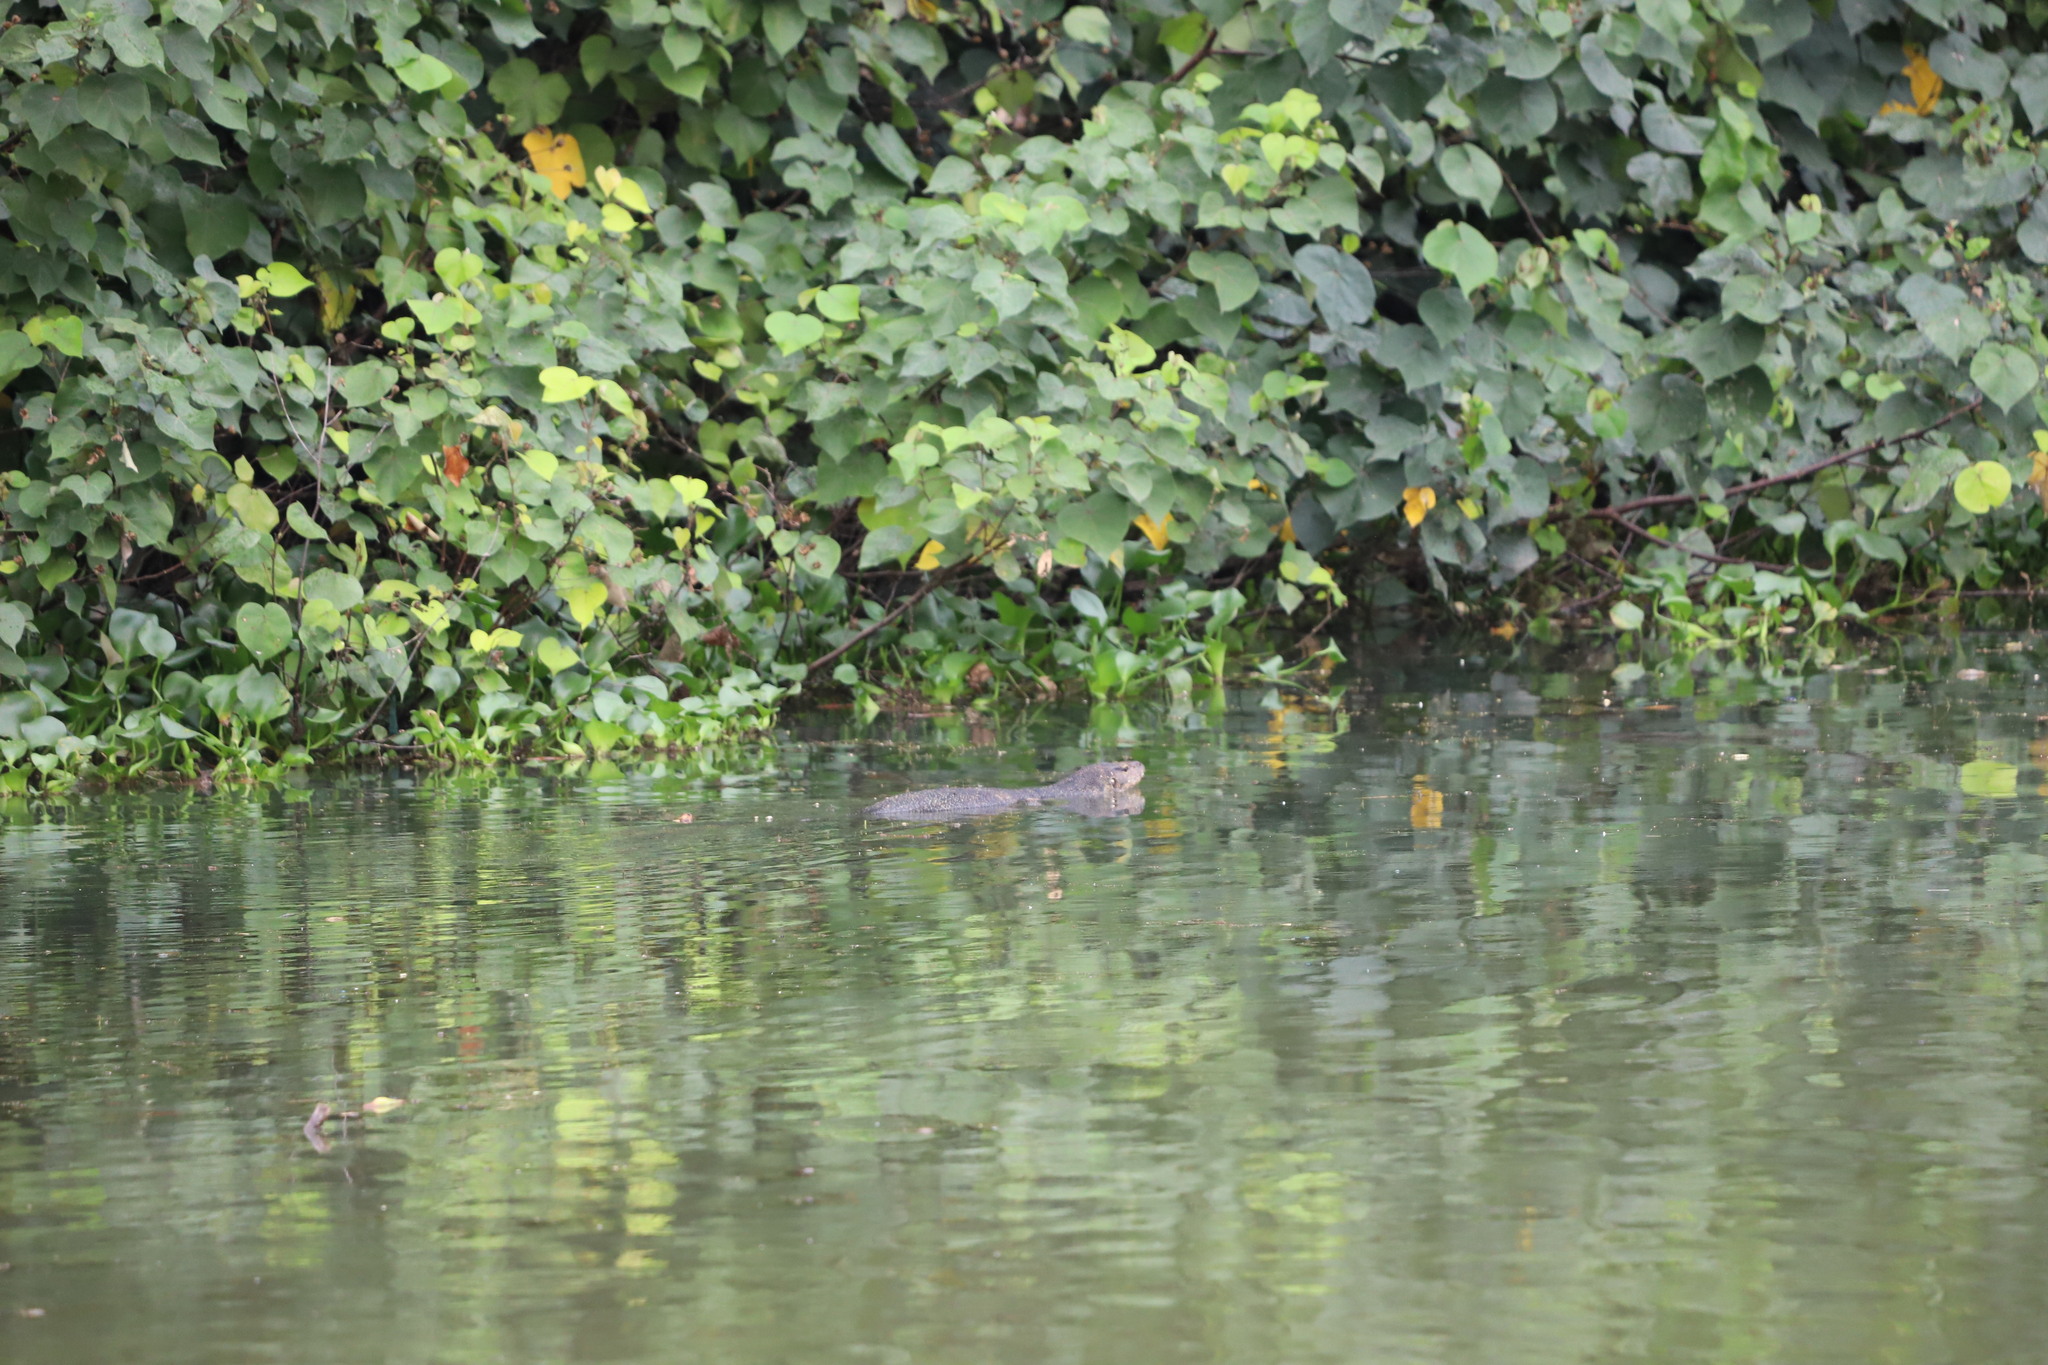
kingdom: Animalia
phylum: Chordata
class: Squamata
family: Varanidae
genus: Varanus
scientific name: Varanus salvator
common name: Common water monitor
